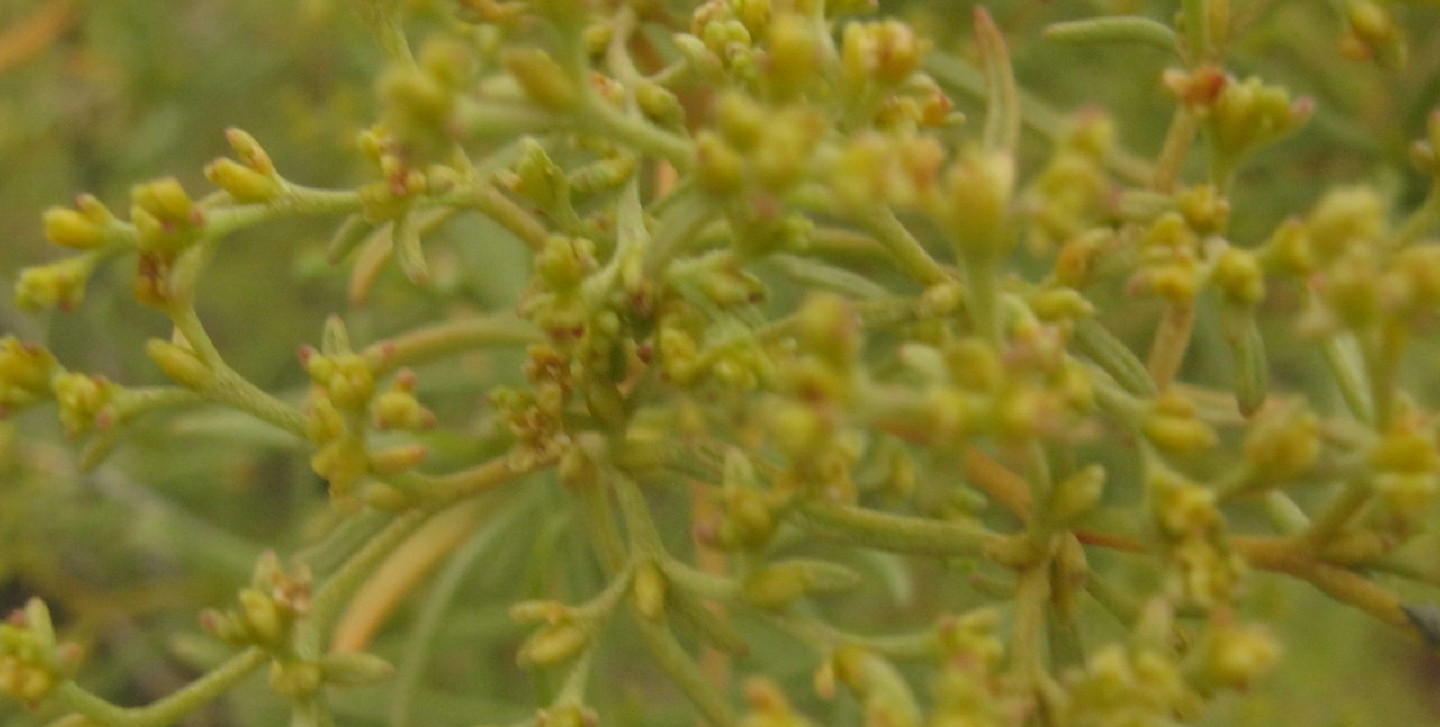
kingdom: Plantae
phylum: Tracheophyta
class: Magnoliopsida
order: Caryophyllales
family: Aizoaceae
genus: Aizoon
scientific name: Aizoon africanum
